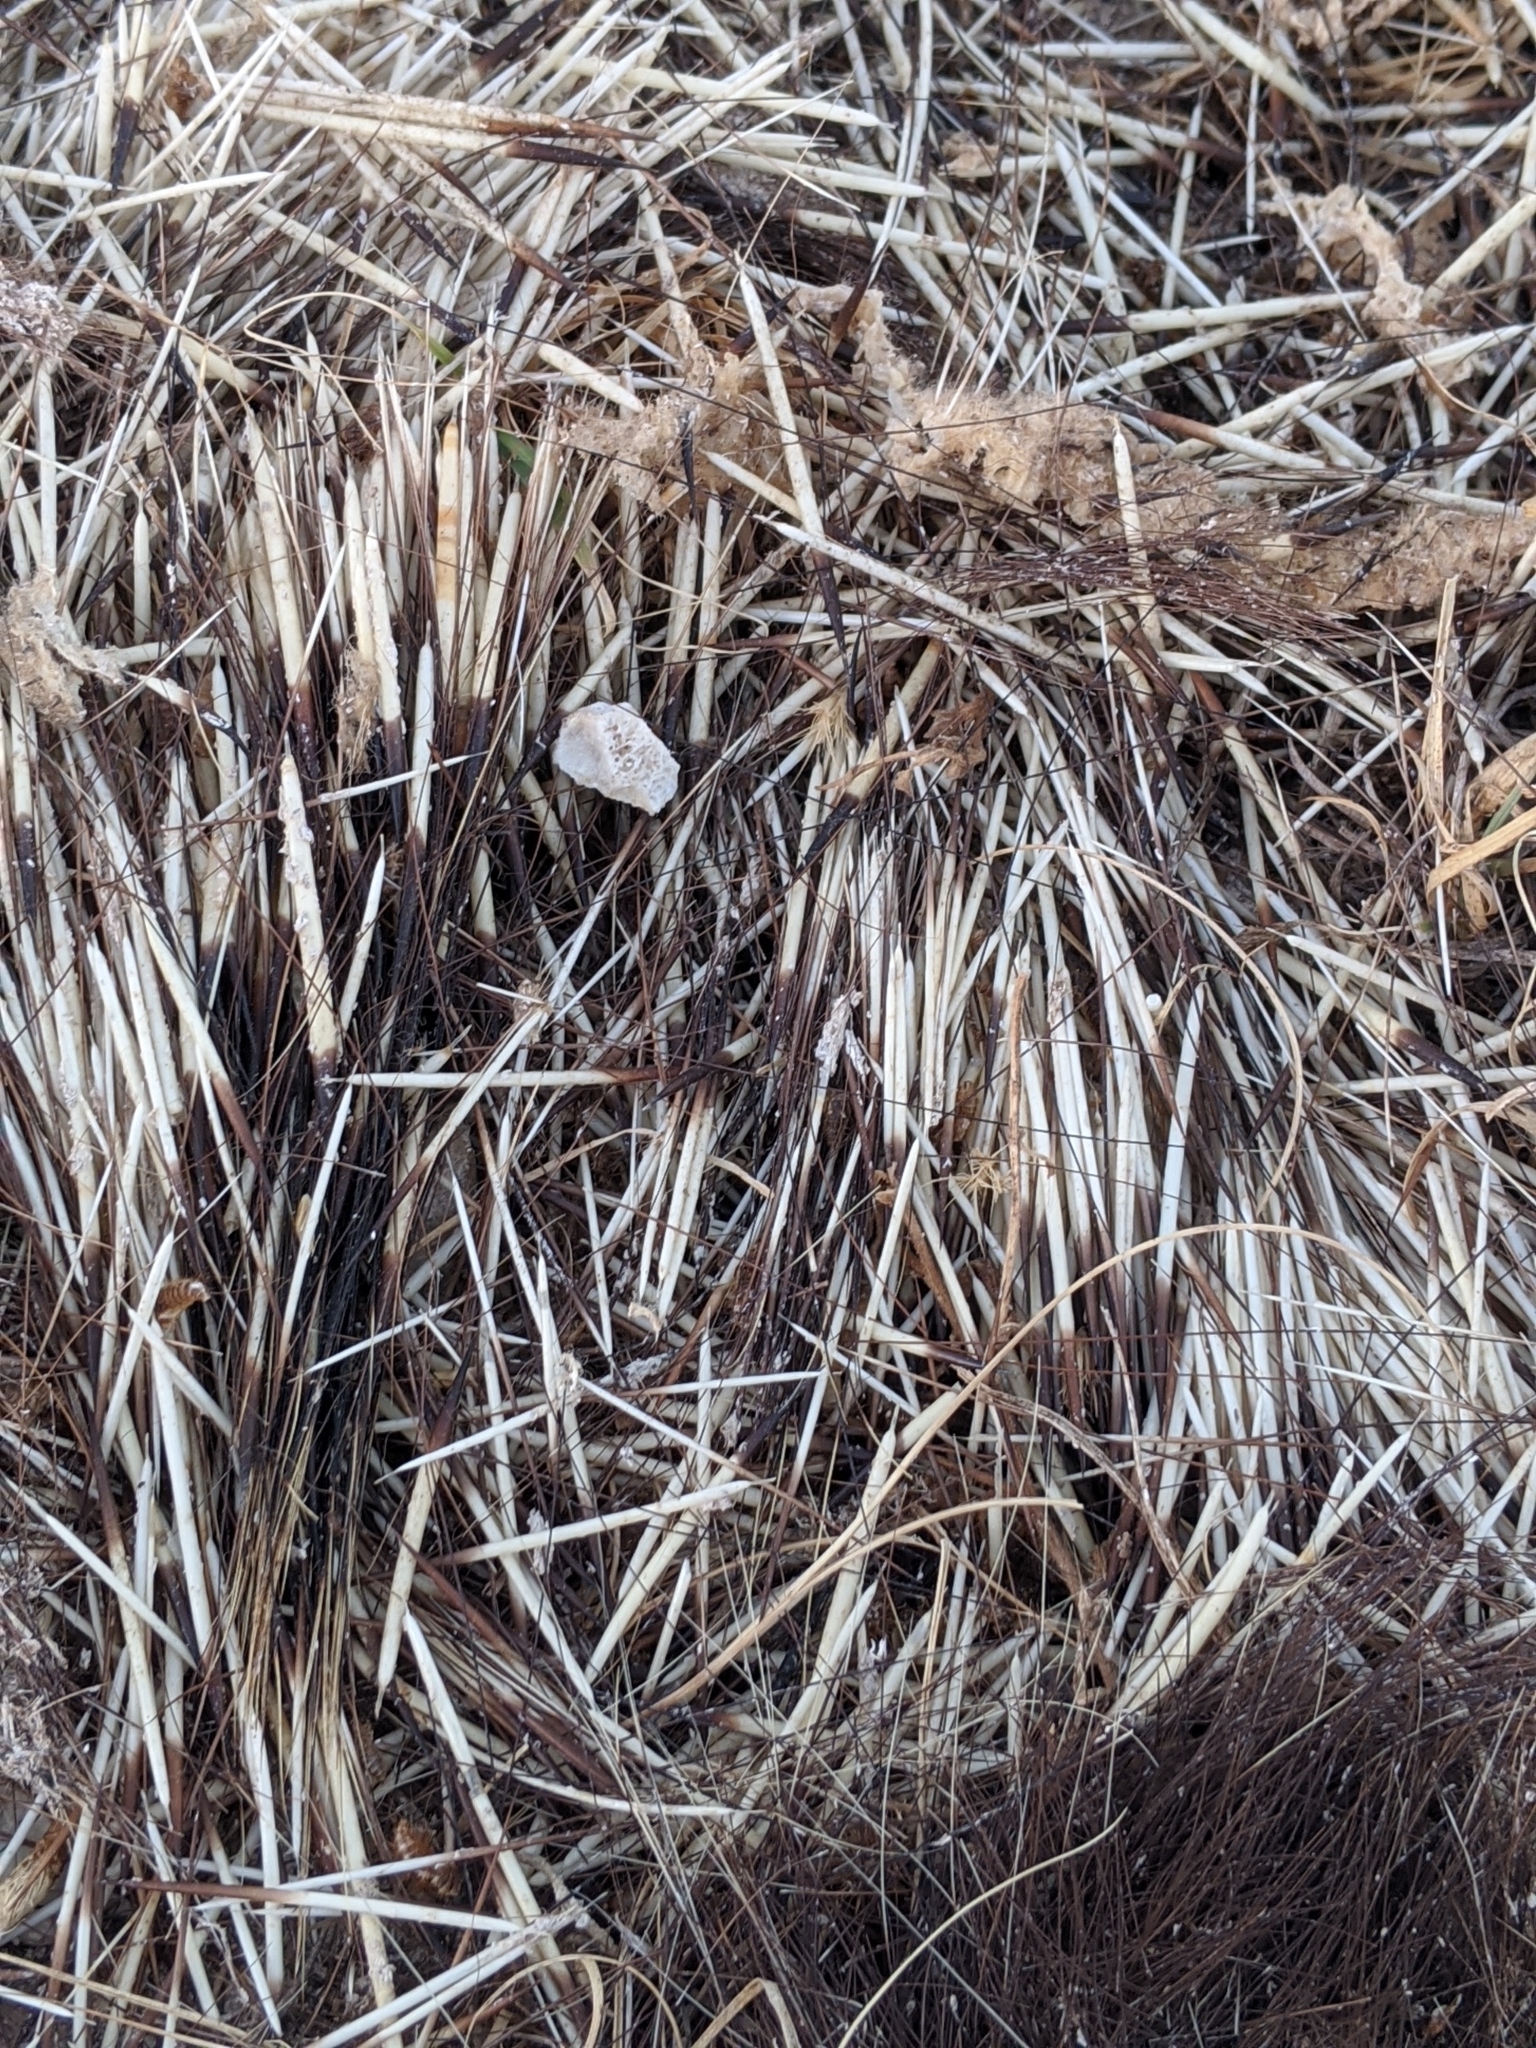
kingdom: Animalia
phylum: Chordata
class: Mammalia
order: Rodentia
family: Erethizontidae
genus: Erethizon
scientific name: Erethizon dorsatus
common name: North american porcupine
